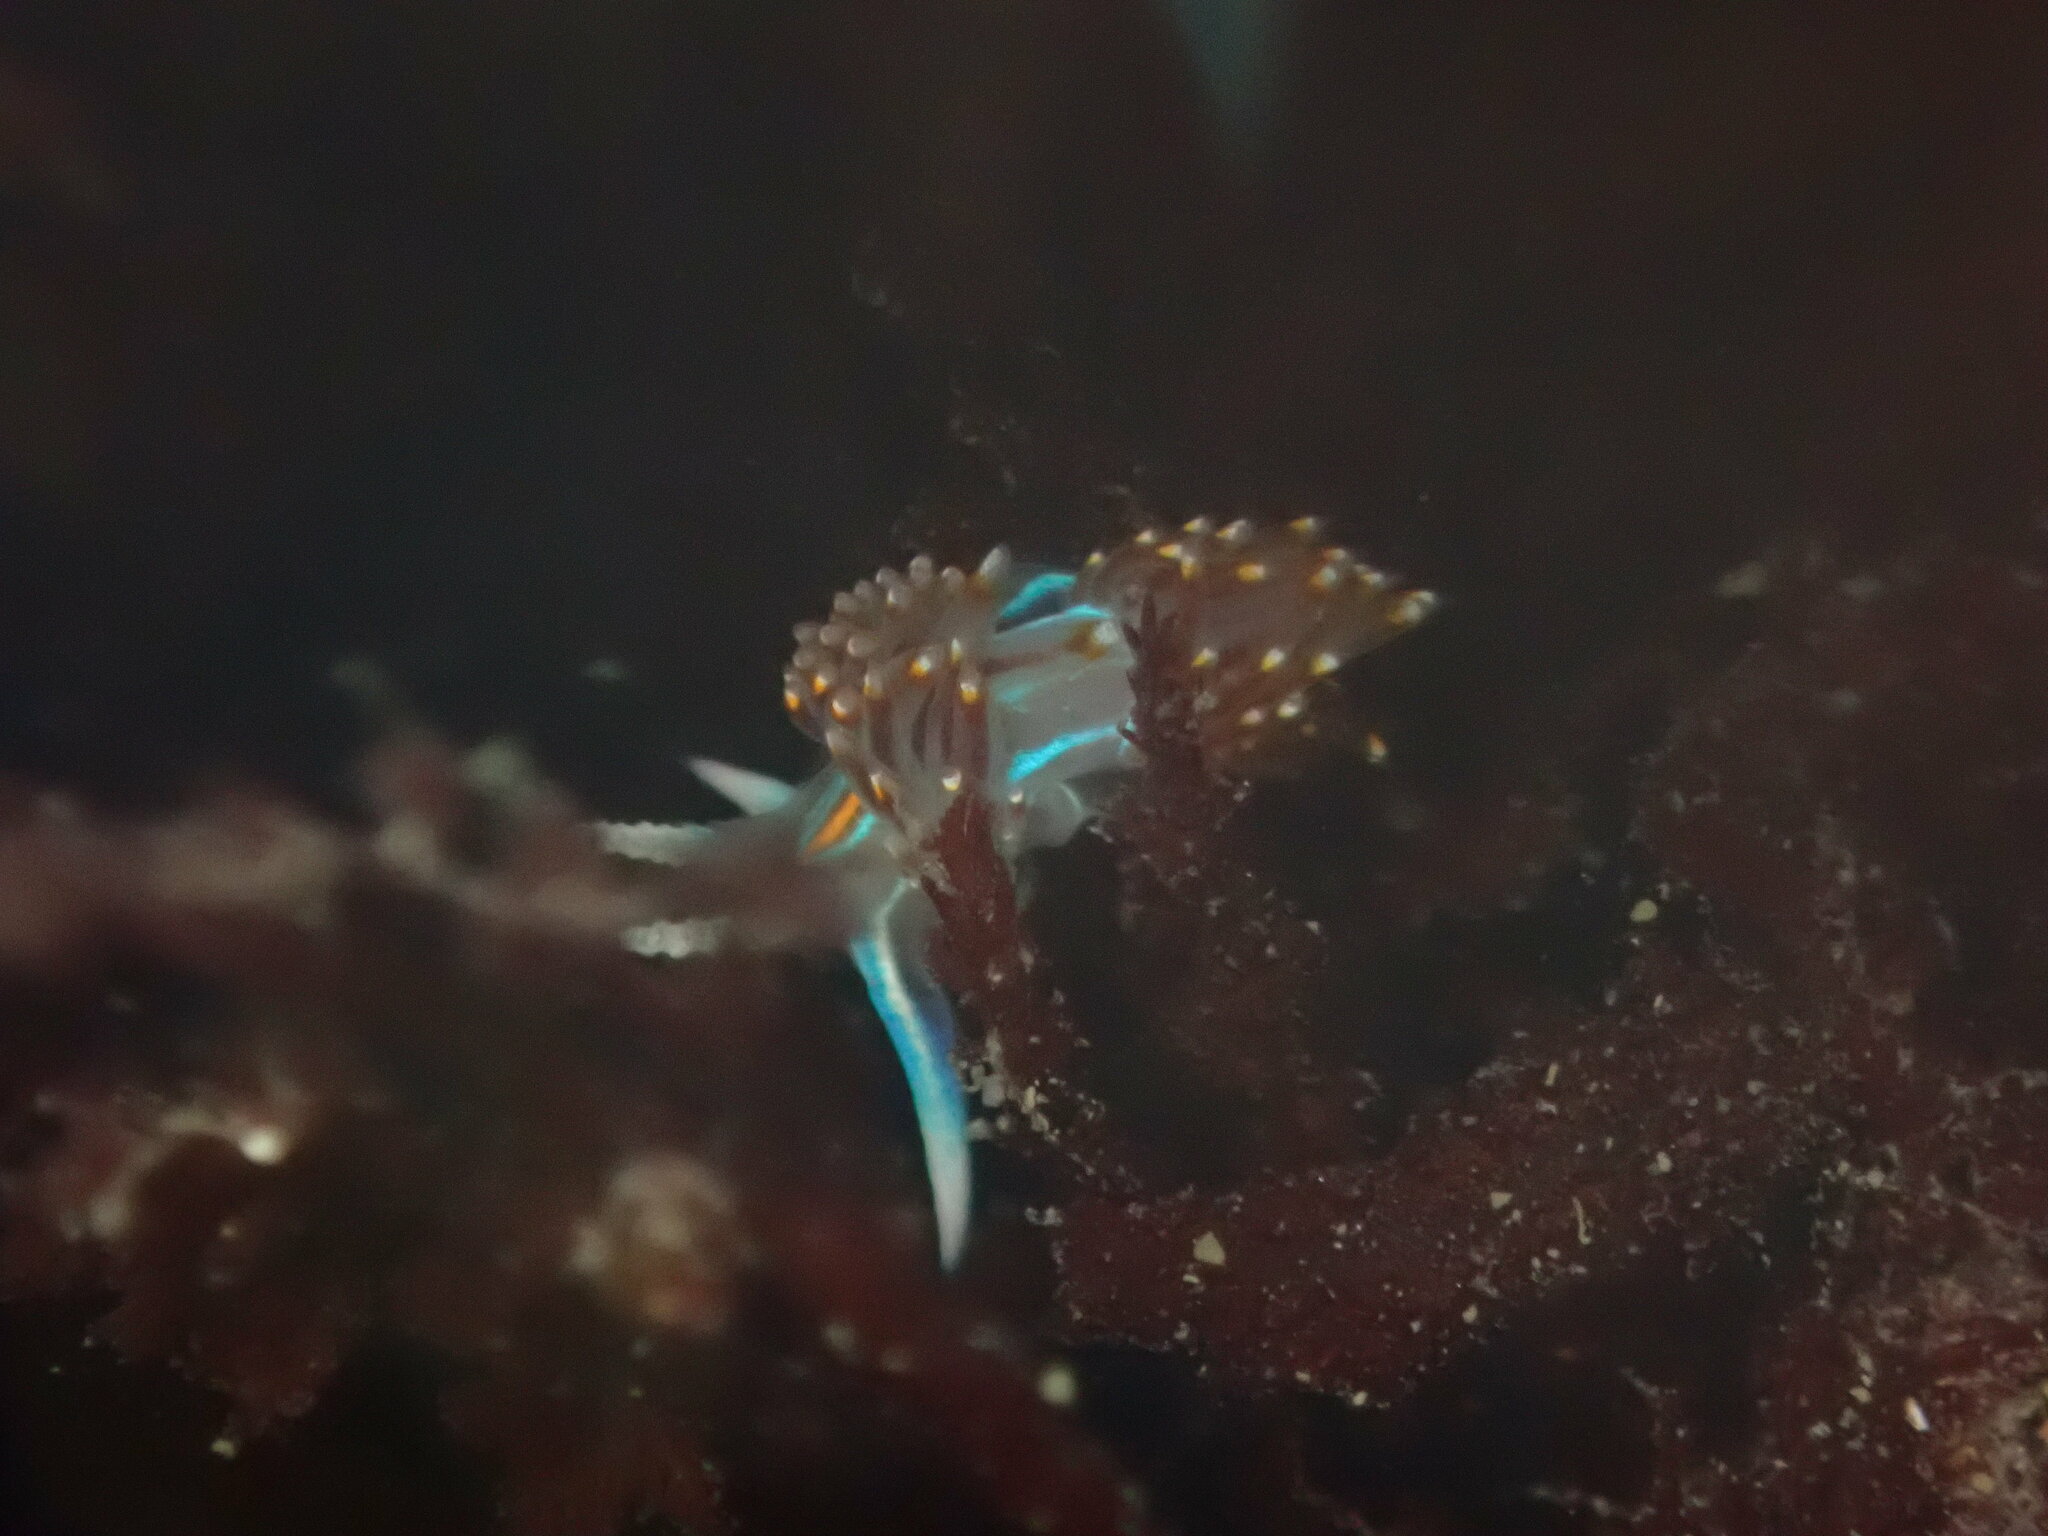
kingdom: Animalia
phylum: Mollusca
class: Gastropoda
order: Nudibranchia
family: Myrrhinidae
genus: Hermissenda
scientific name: Hermissenda opalescens
